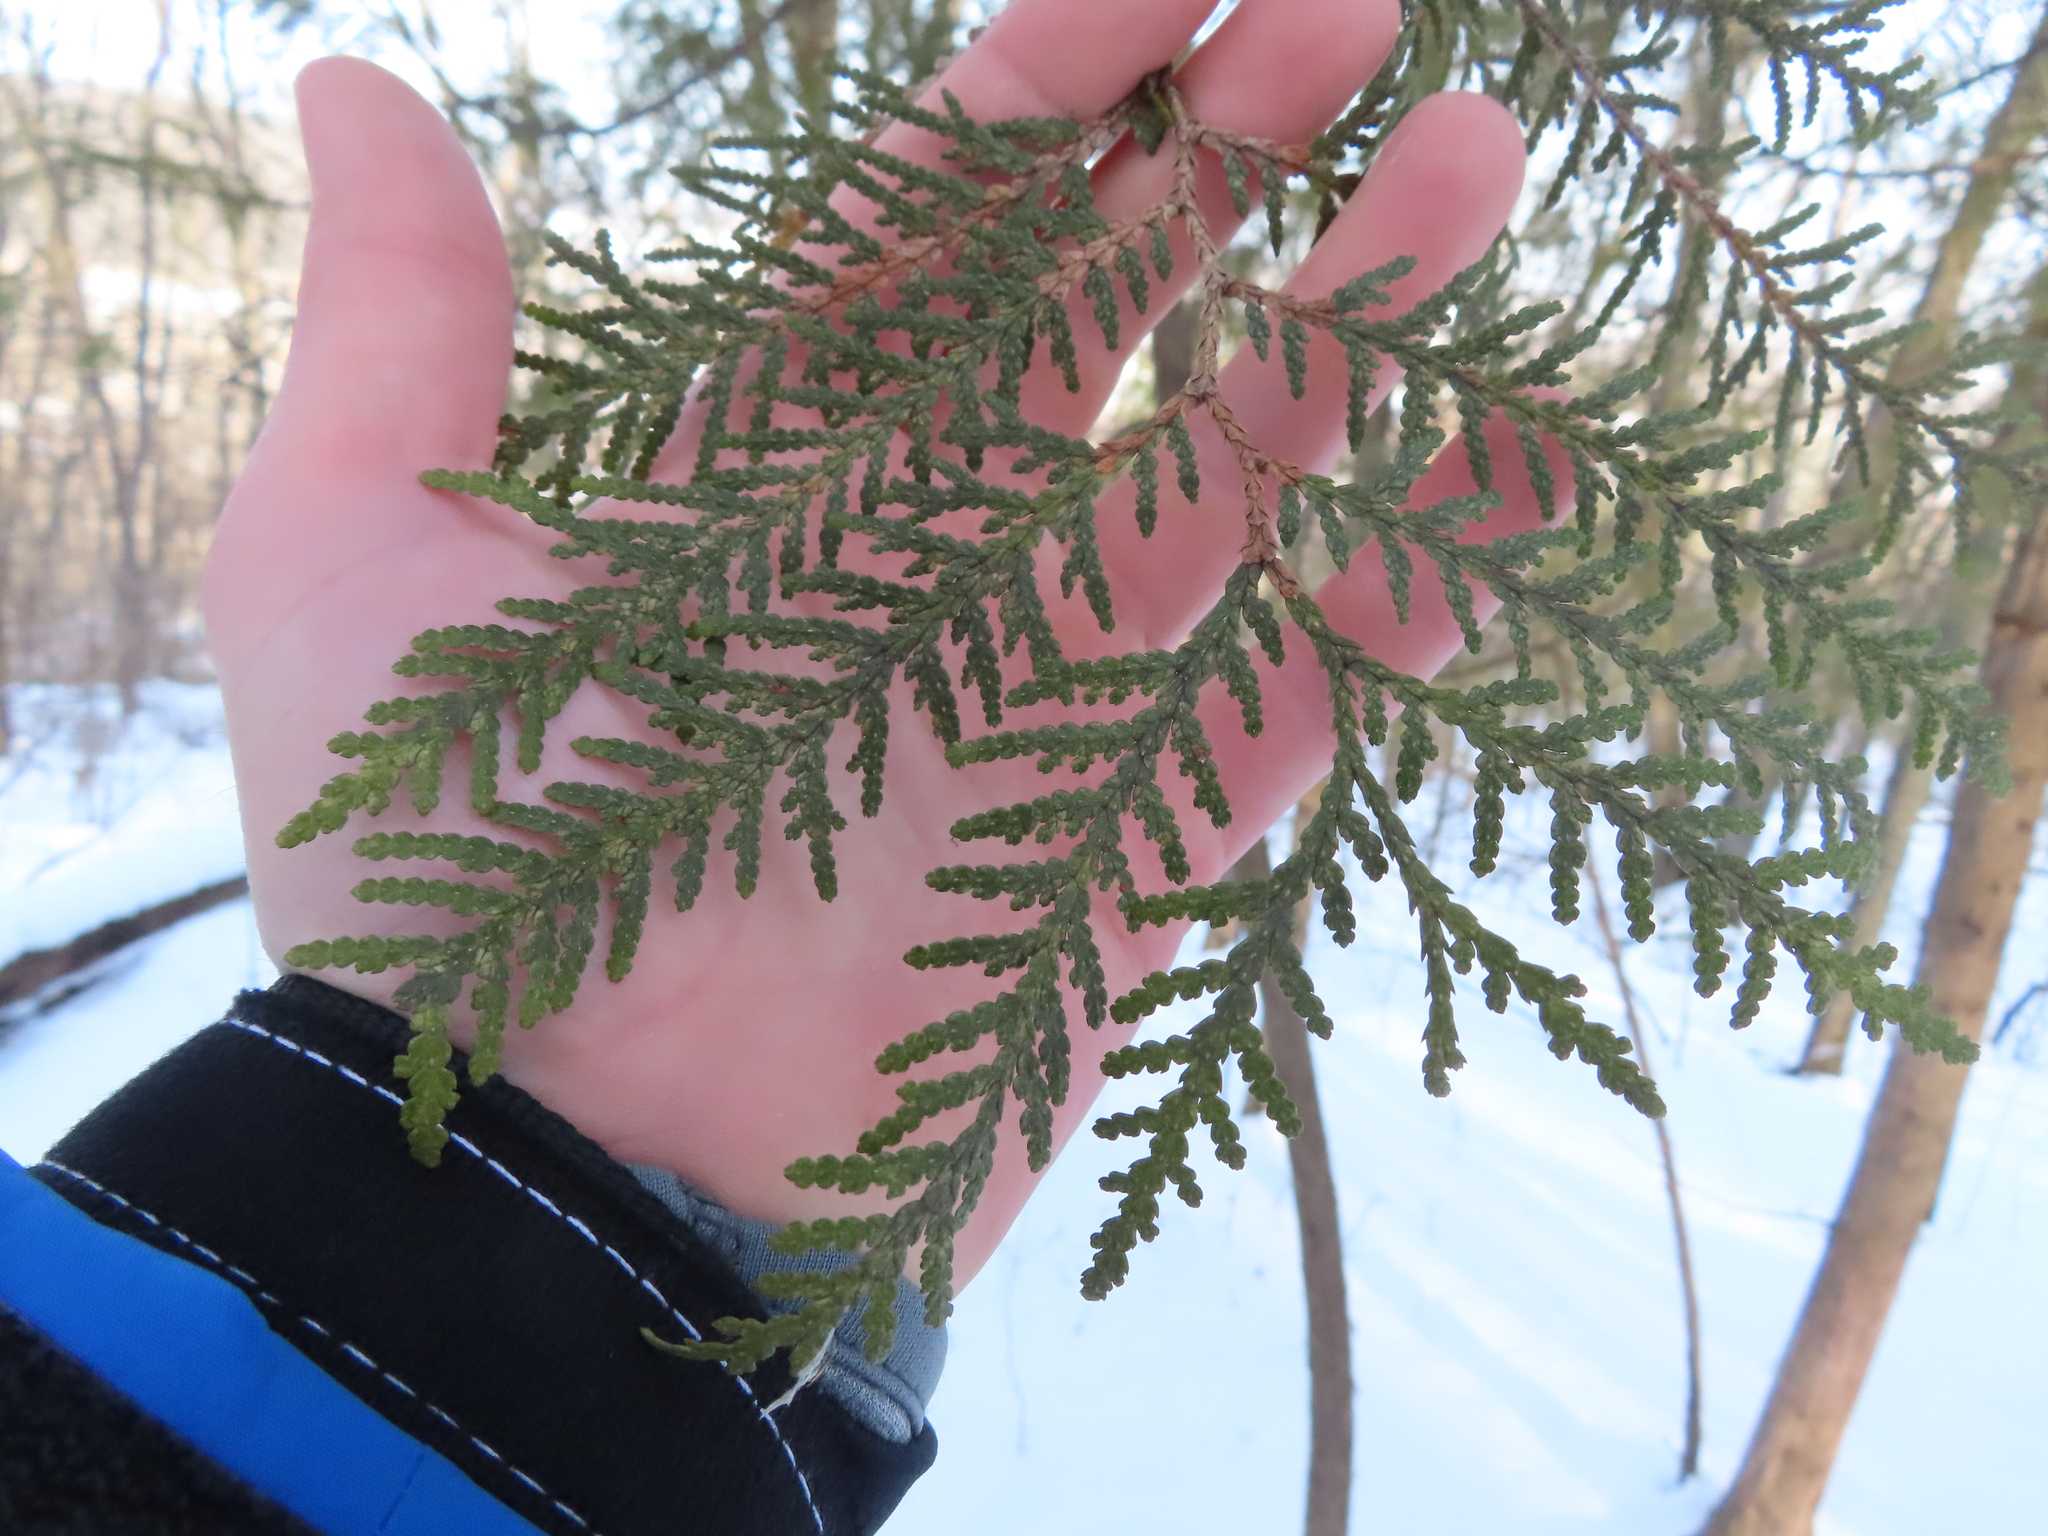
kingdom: Plantae
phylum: Tracheophyta
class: Pinopsida
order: Pinales
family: Cupressaceae
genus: Thuja
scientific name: Thuja occidentalis
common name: Northern white-cedar
